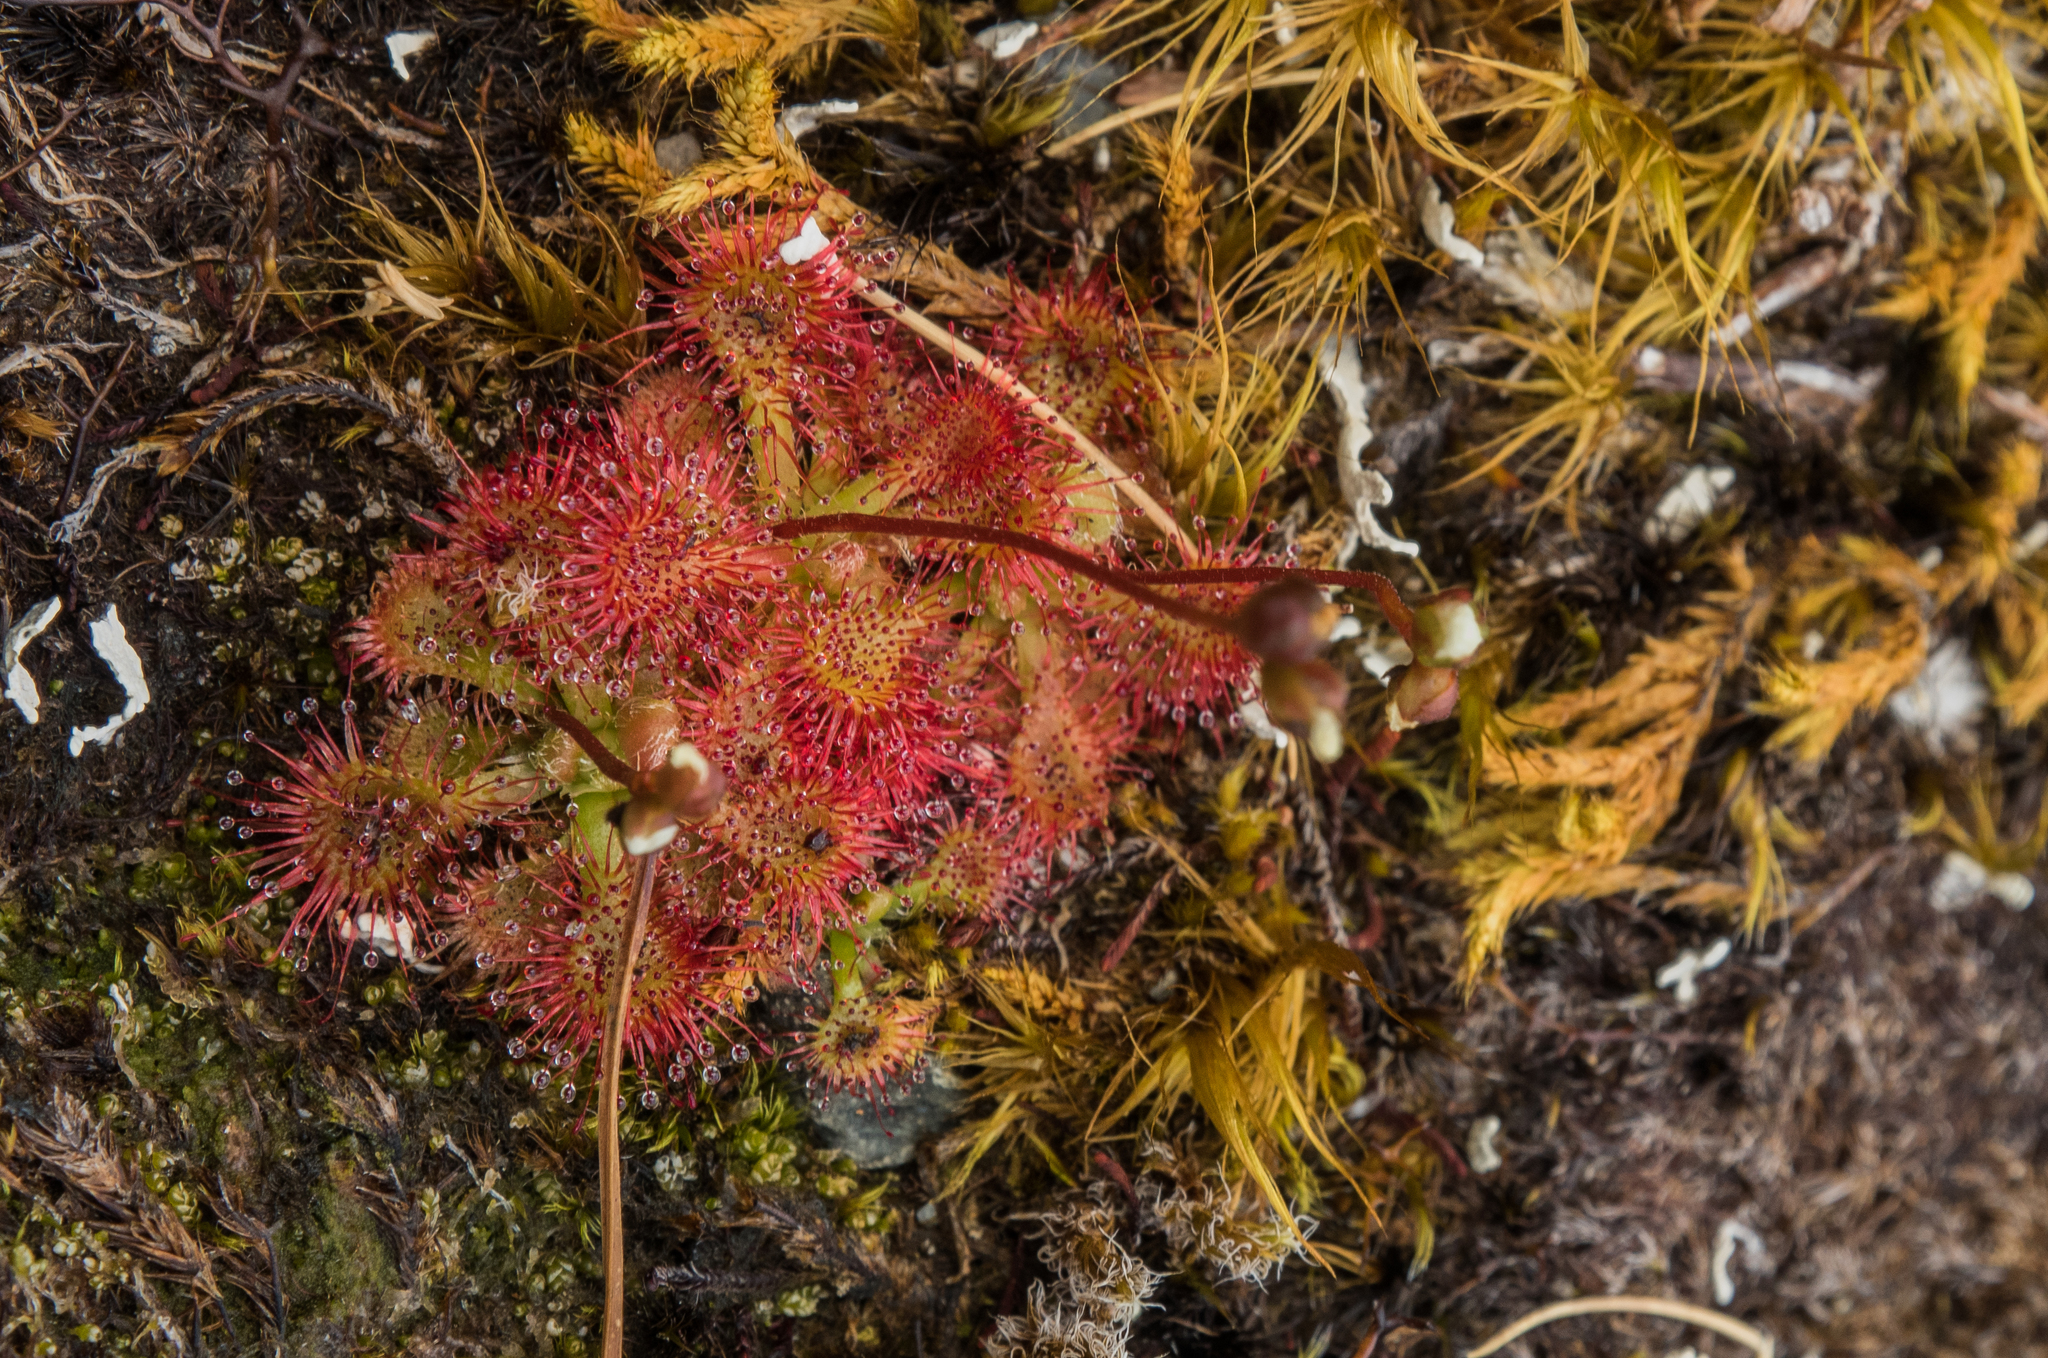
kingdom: Plantae
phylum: Tracheophyta
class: Magnoliopsida
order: Caryophyllales
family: Droseraceae
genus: Drosera
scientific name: Drosera spatulata
